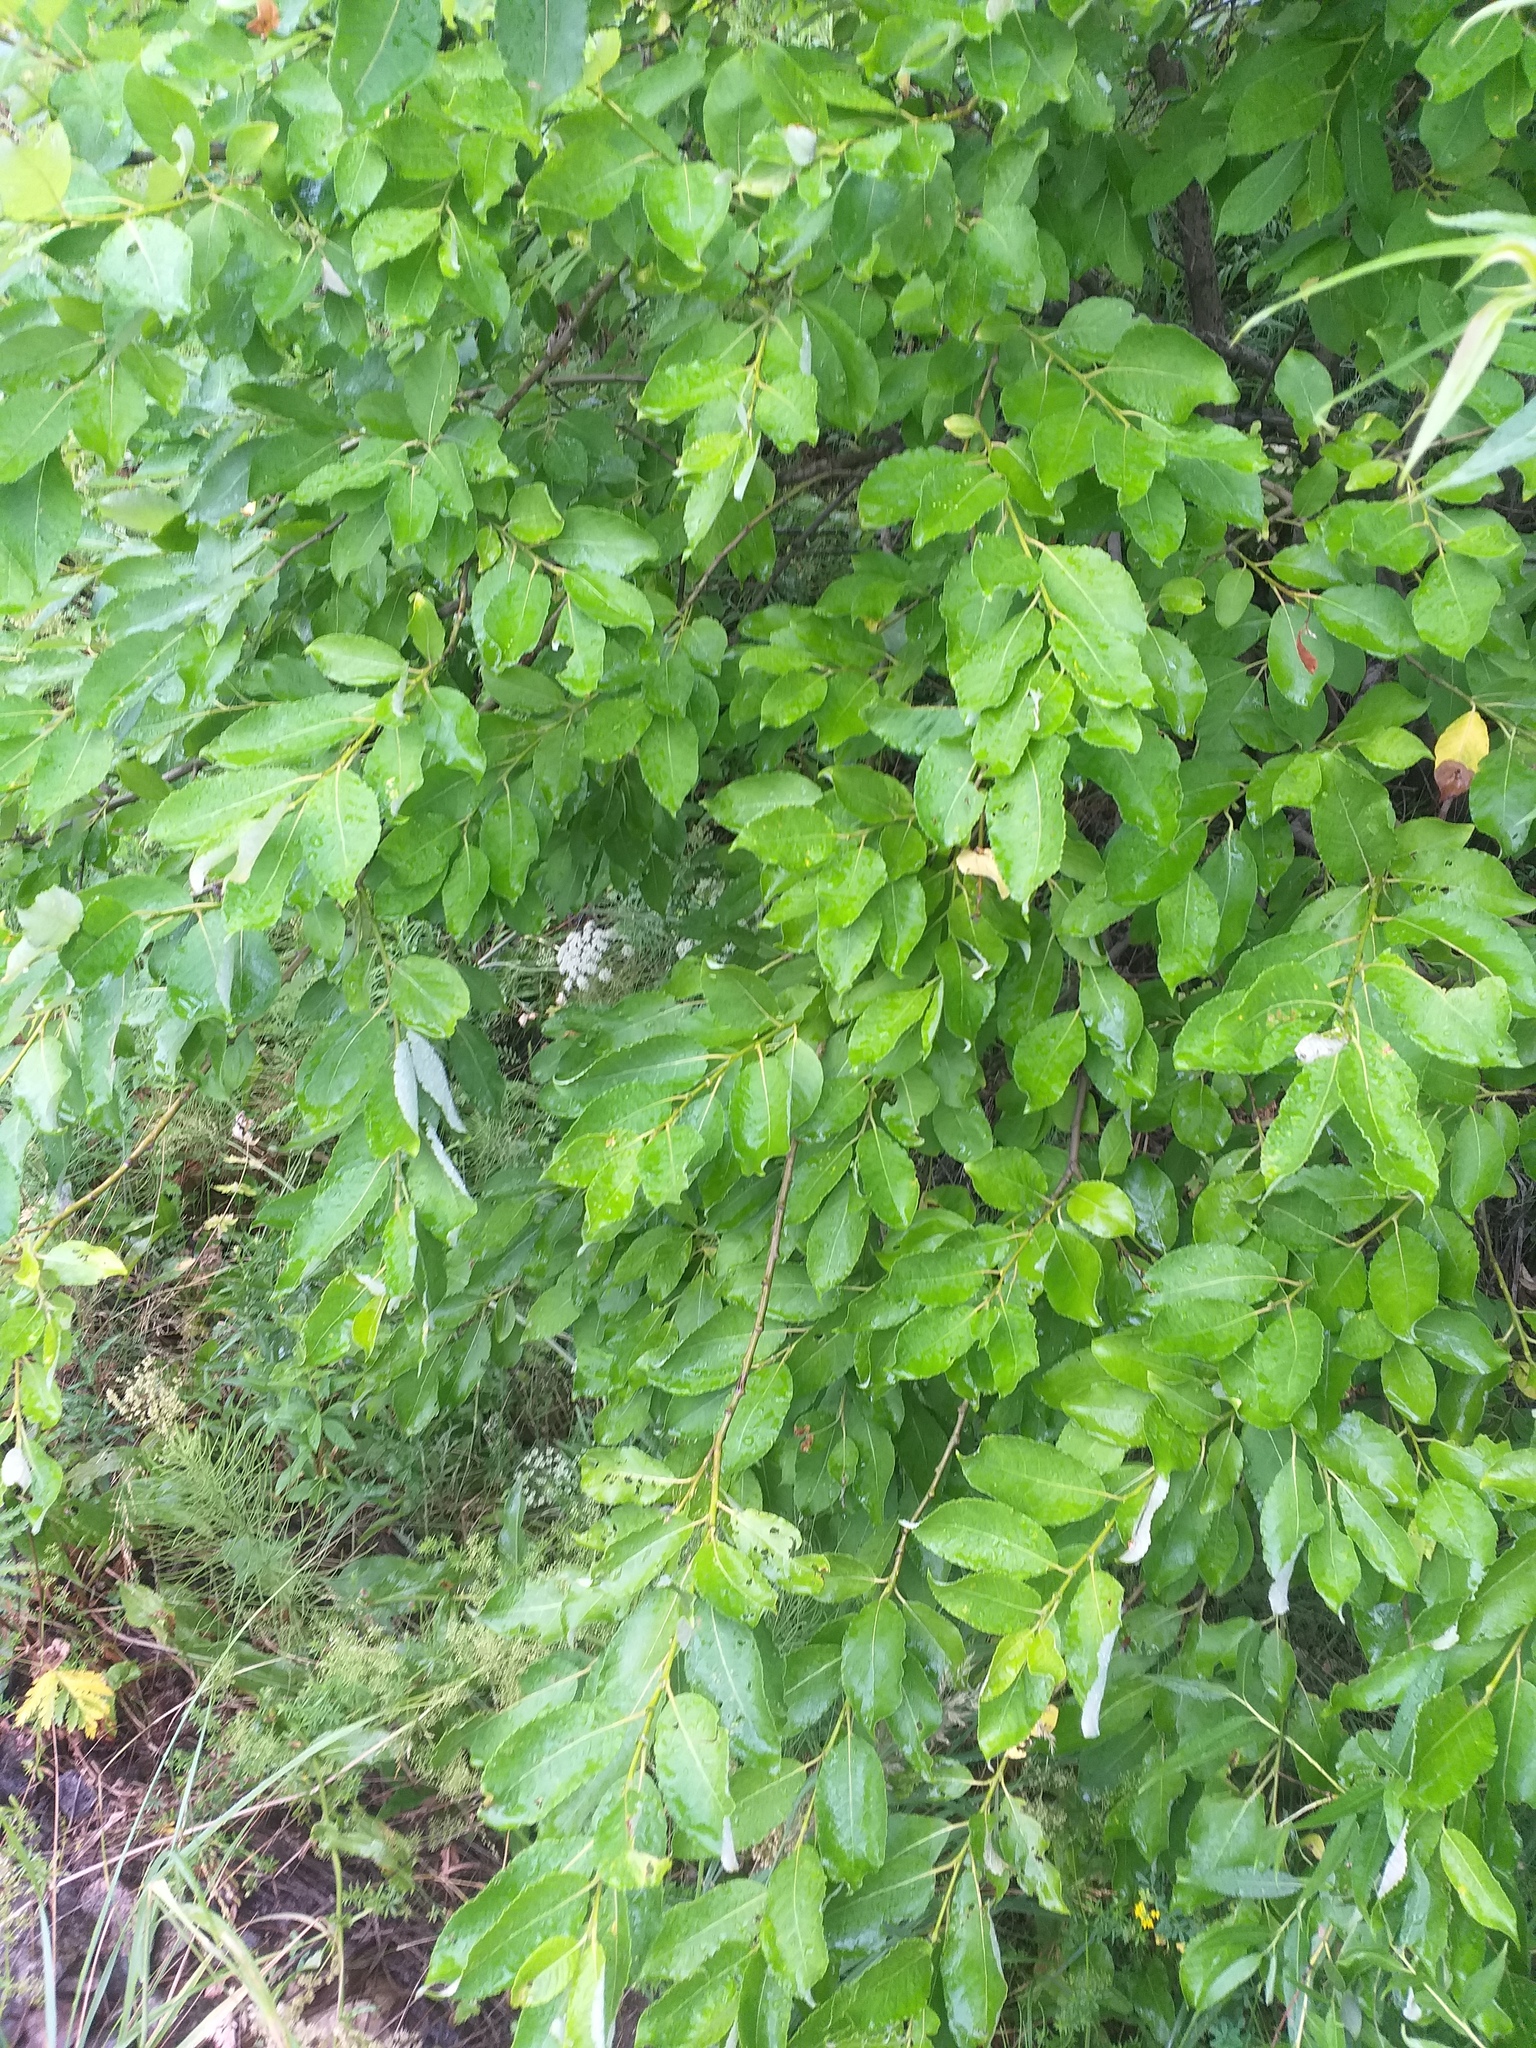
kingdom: Plantae
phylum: Tracheophyta
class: Magnoliopsida
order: Malpighiales
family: Salicaceae
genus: Salix
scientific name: Salix caprea
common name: Goat willow
